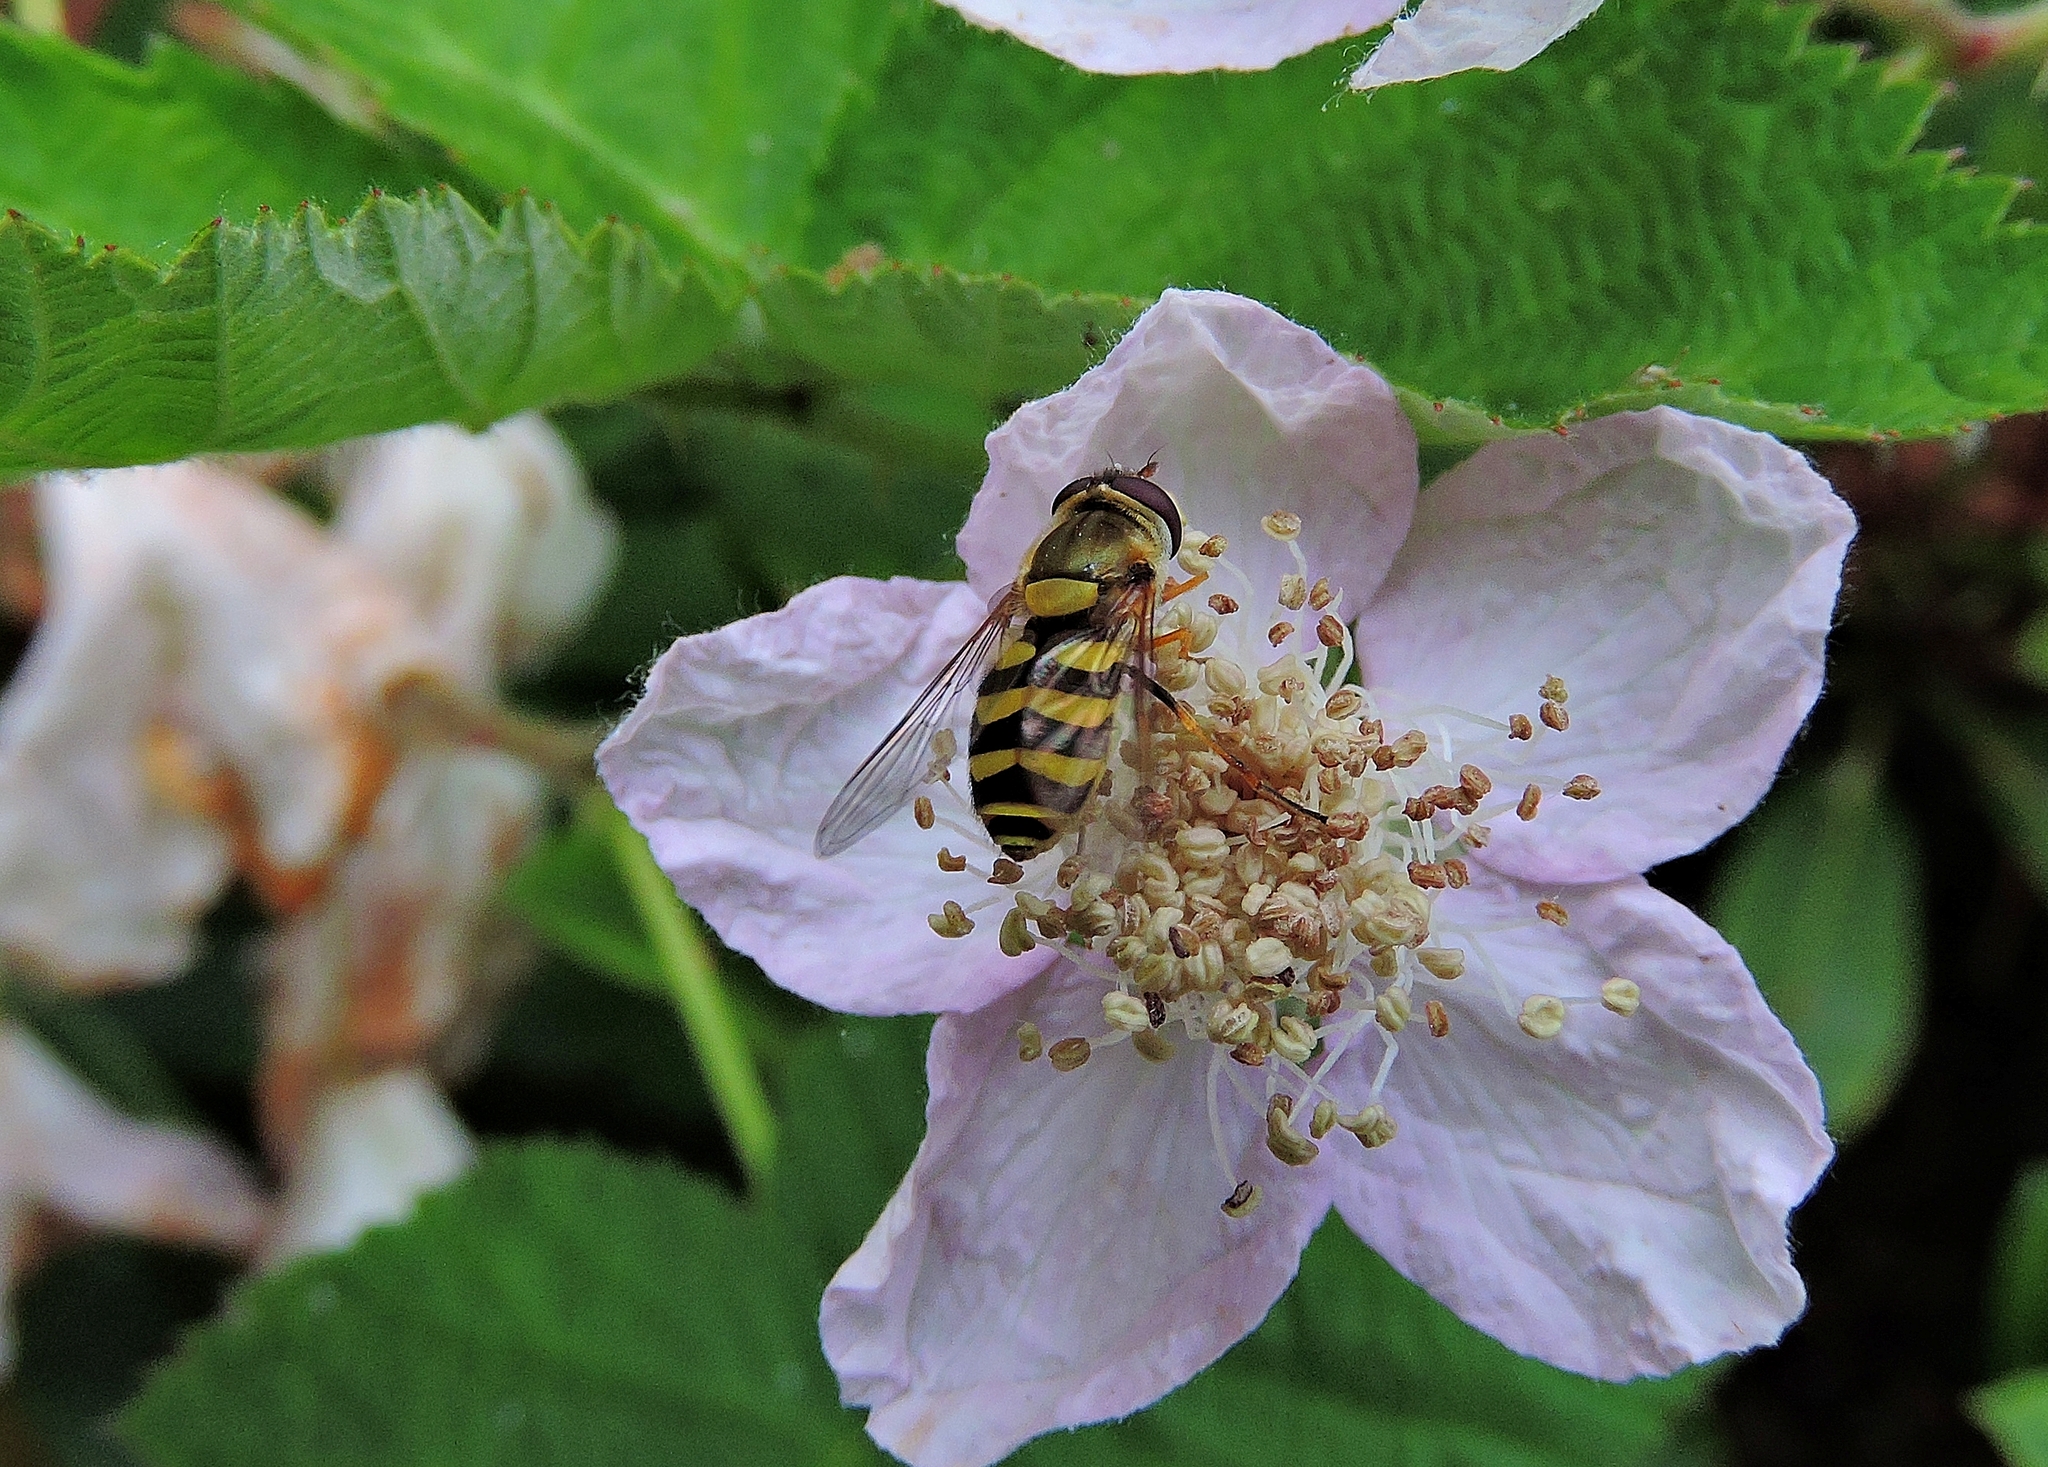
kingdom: Animalia
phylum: Arthropoda
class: Insecta
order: Diptera
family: Syrphidae
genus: Syrphus
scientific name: Syrphus
